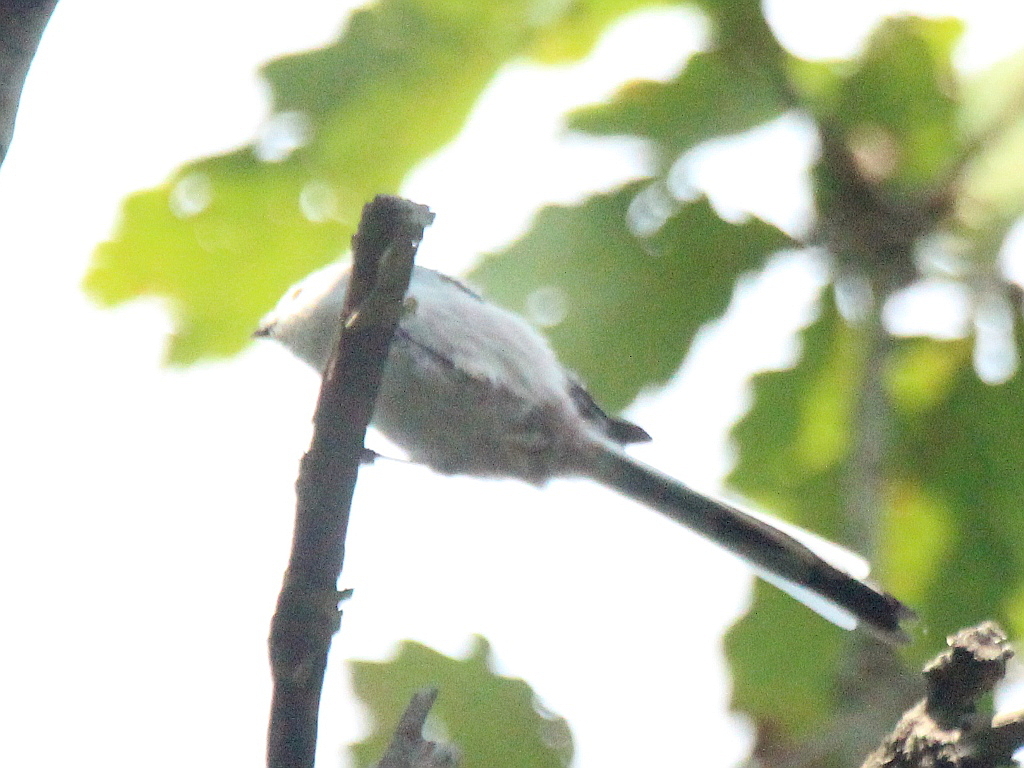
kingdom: Animalia
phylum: Chordata
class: Aves
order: Passeriformes
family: Aegithalidae
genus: Aegithalos
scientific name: Aegithalos caudatus
